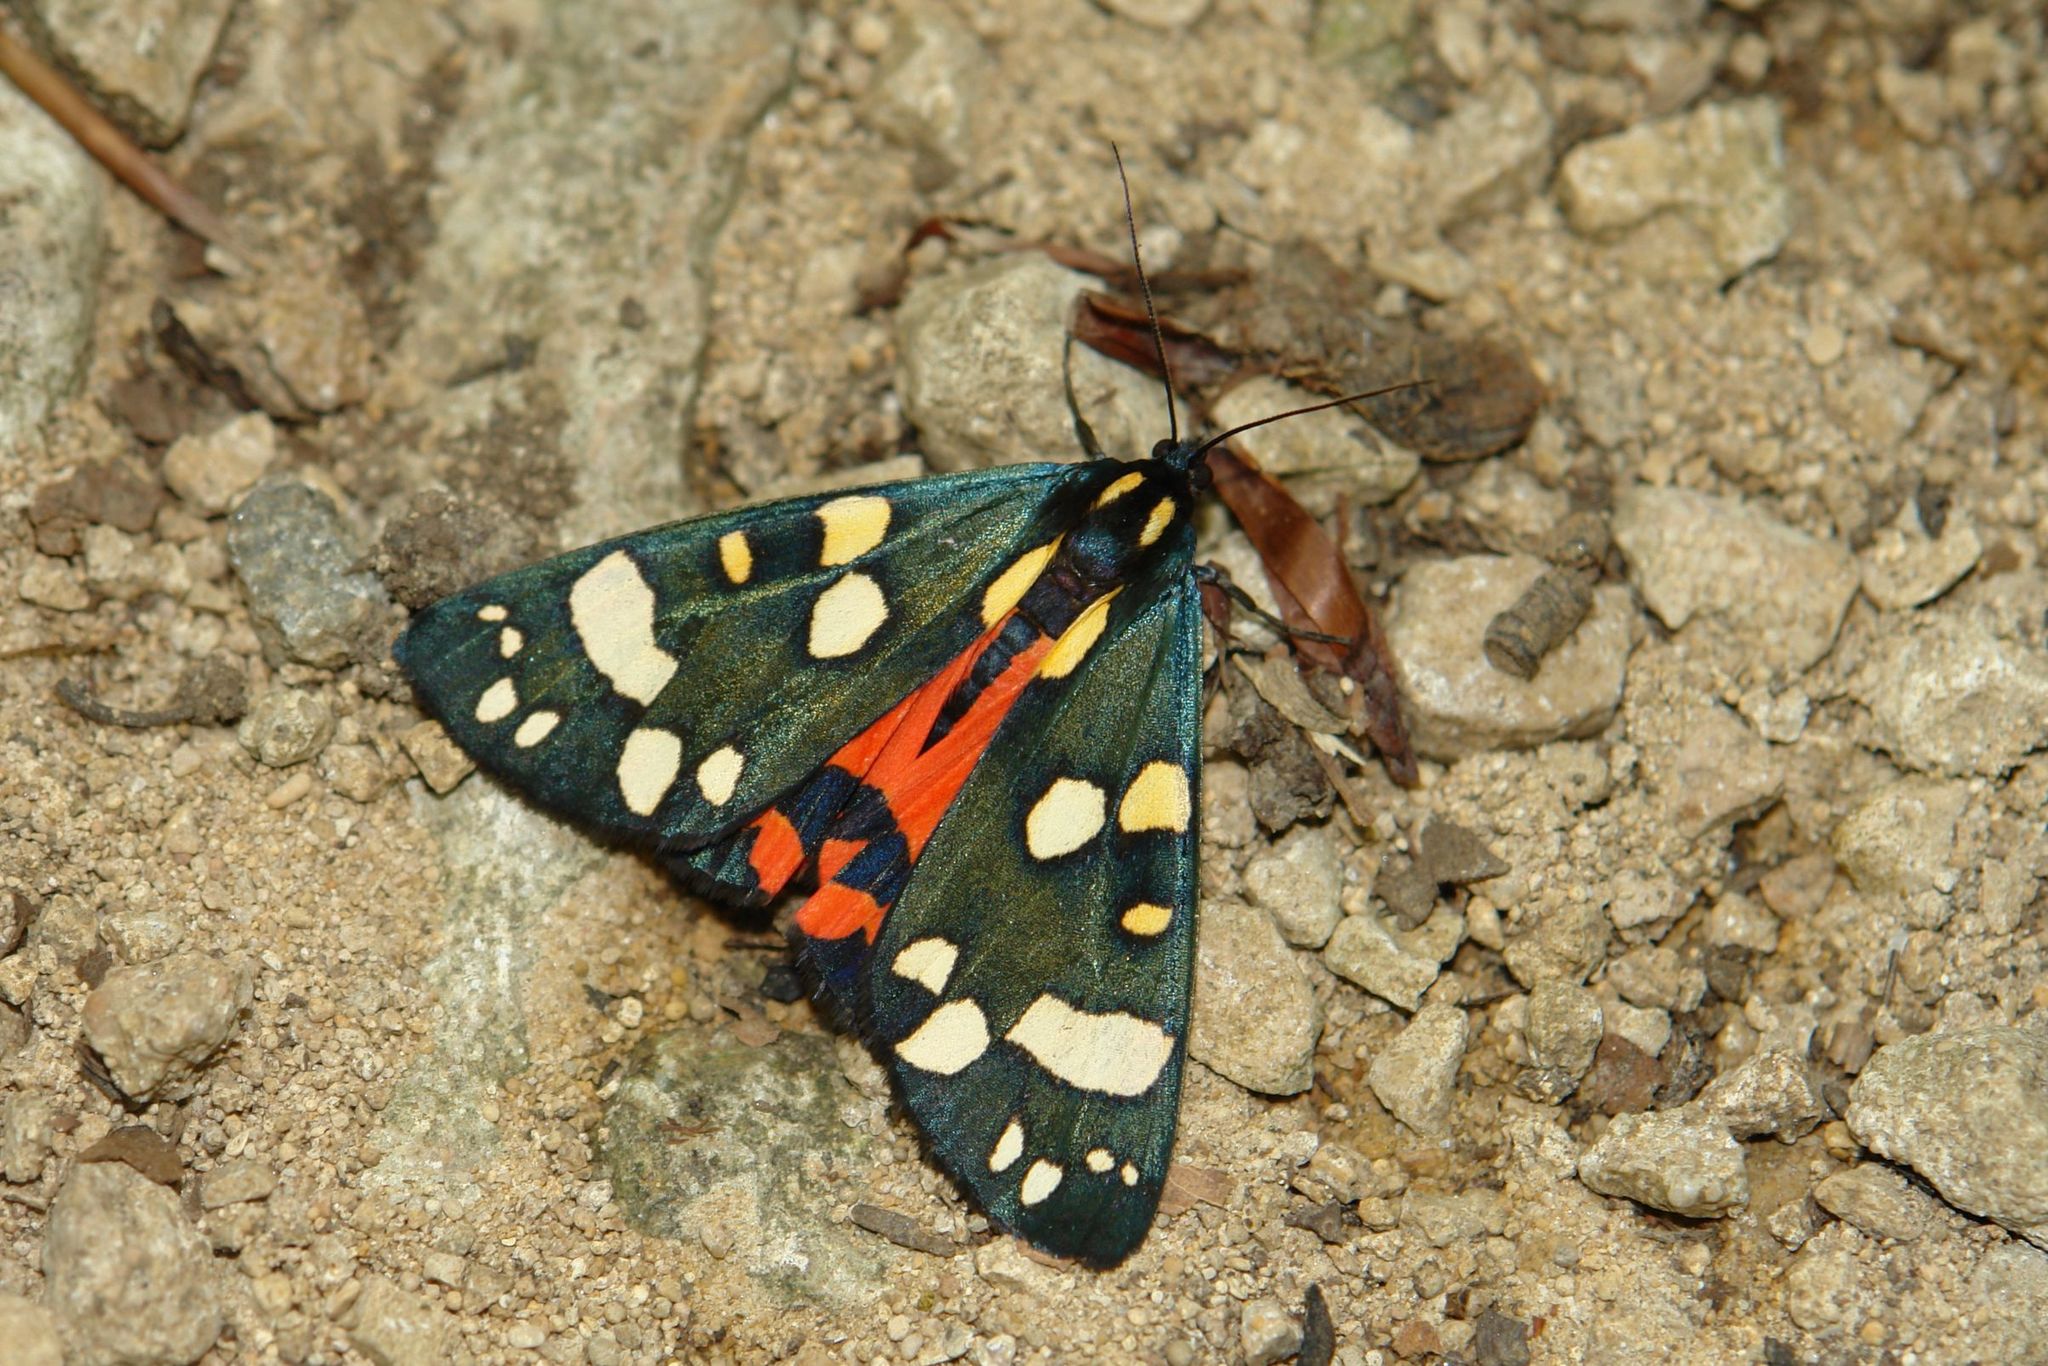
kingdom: Animalia
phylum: Arthropoda
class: Insecta
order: Lepidoptera
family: Erebidae
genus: Callimorpha
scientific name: Callimorpha dominula
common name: Scarlet tiger
